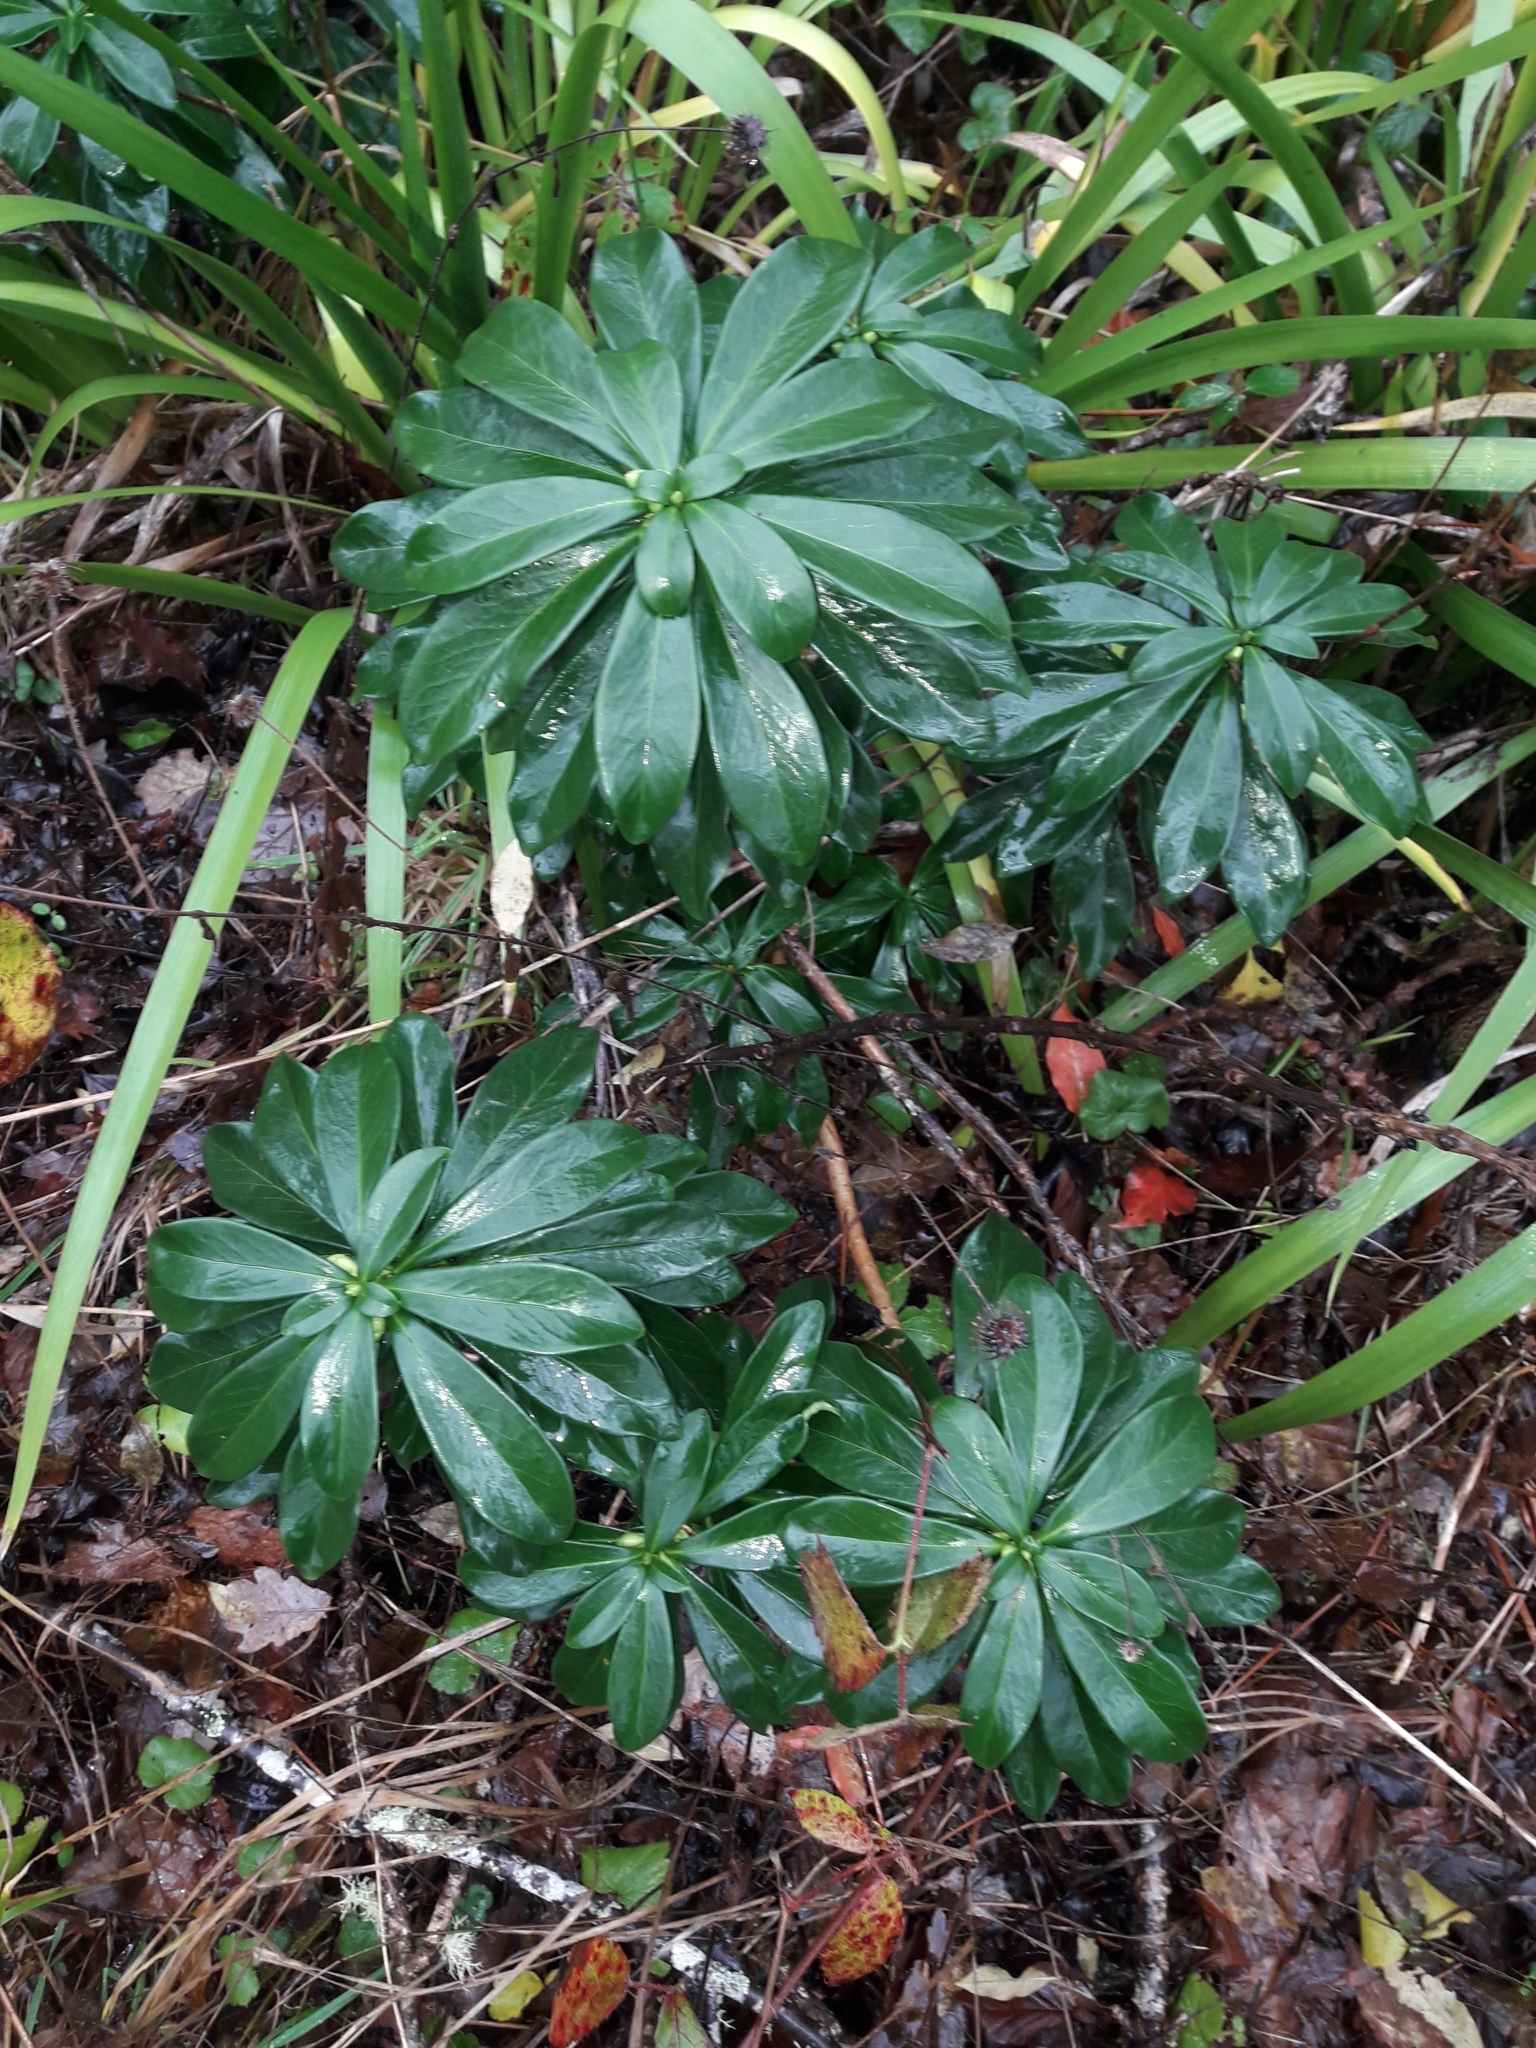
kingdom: Plantae
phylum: Tracheophyta
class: Magnoliopsida
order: Malvales
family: Thymelaeaceae
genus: Daphne
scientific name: Daphne laureola
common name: Spurge-laurel
